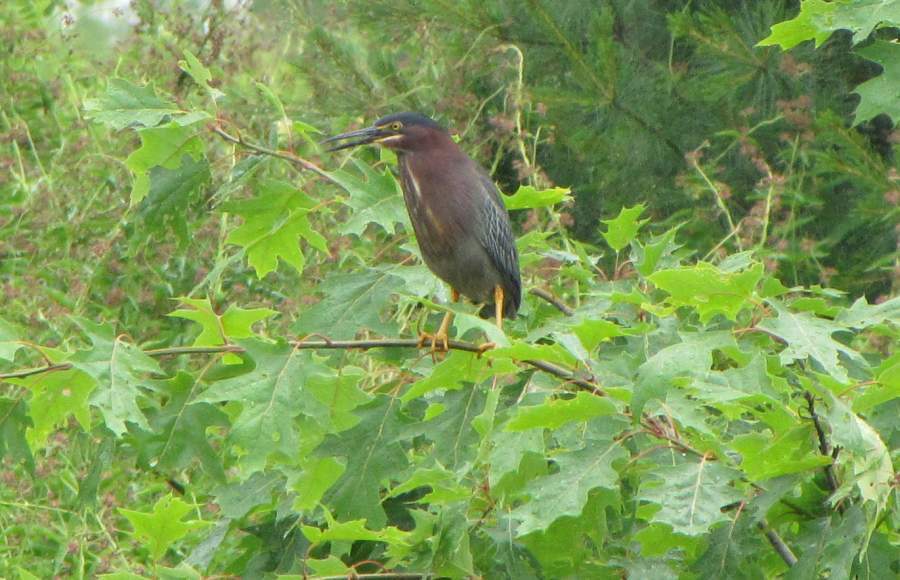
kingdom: Animalia
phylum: Chordata
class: Aves
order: Pelecaniformes
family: Ardeidae
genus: Butorides
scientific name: Butorides virescens
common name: Green heron
